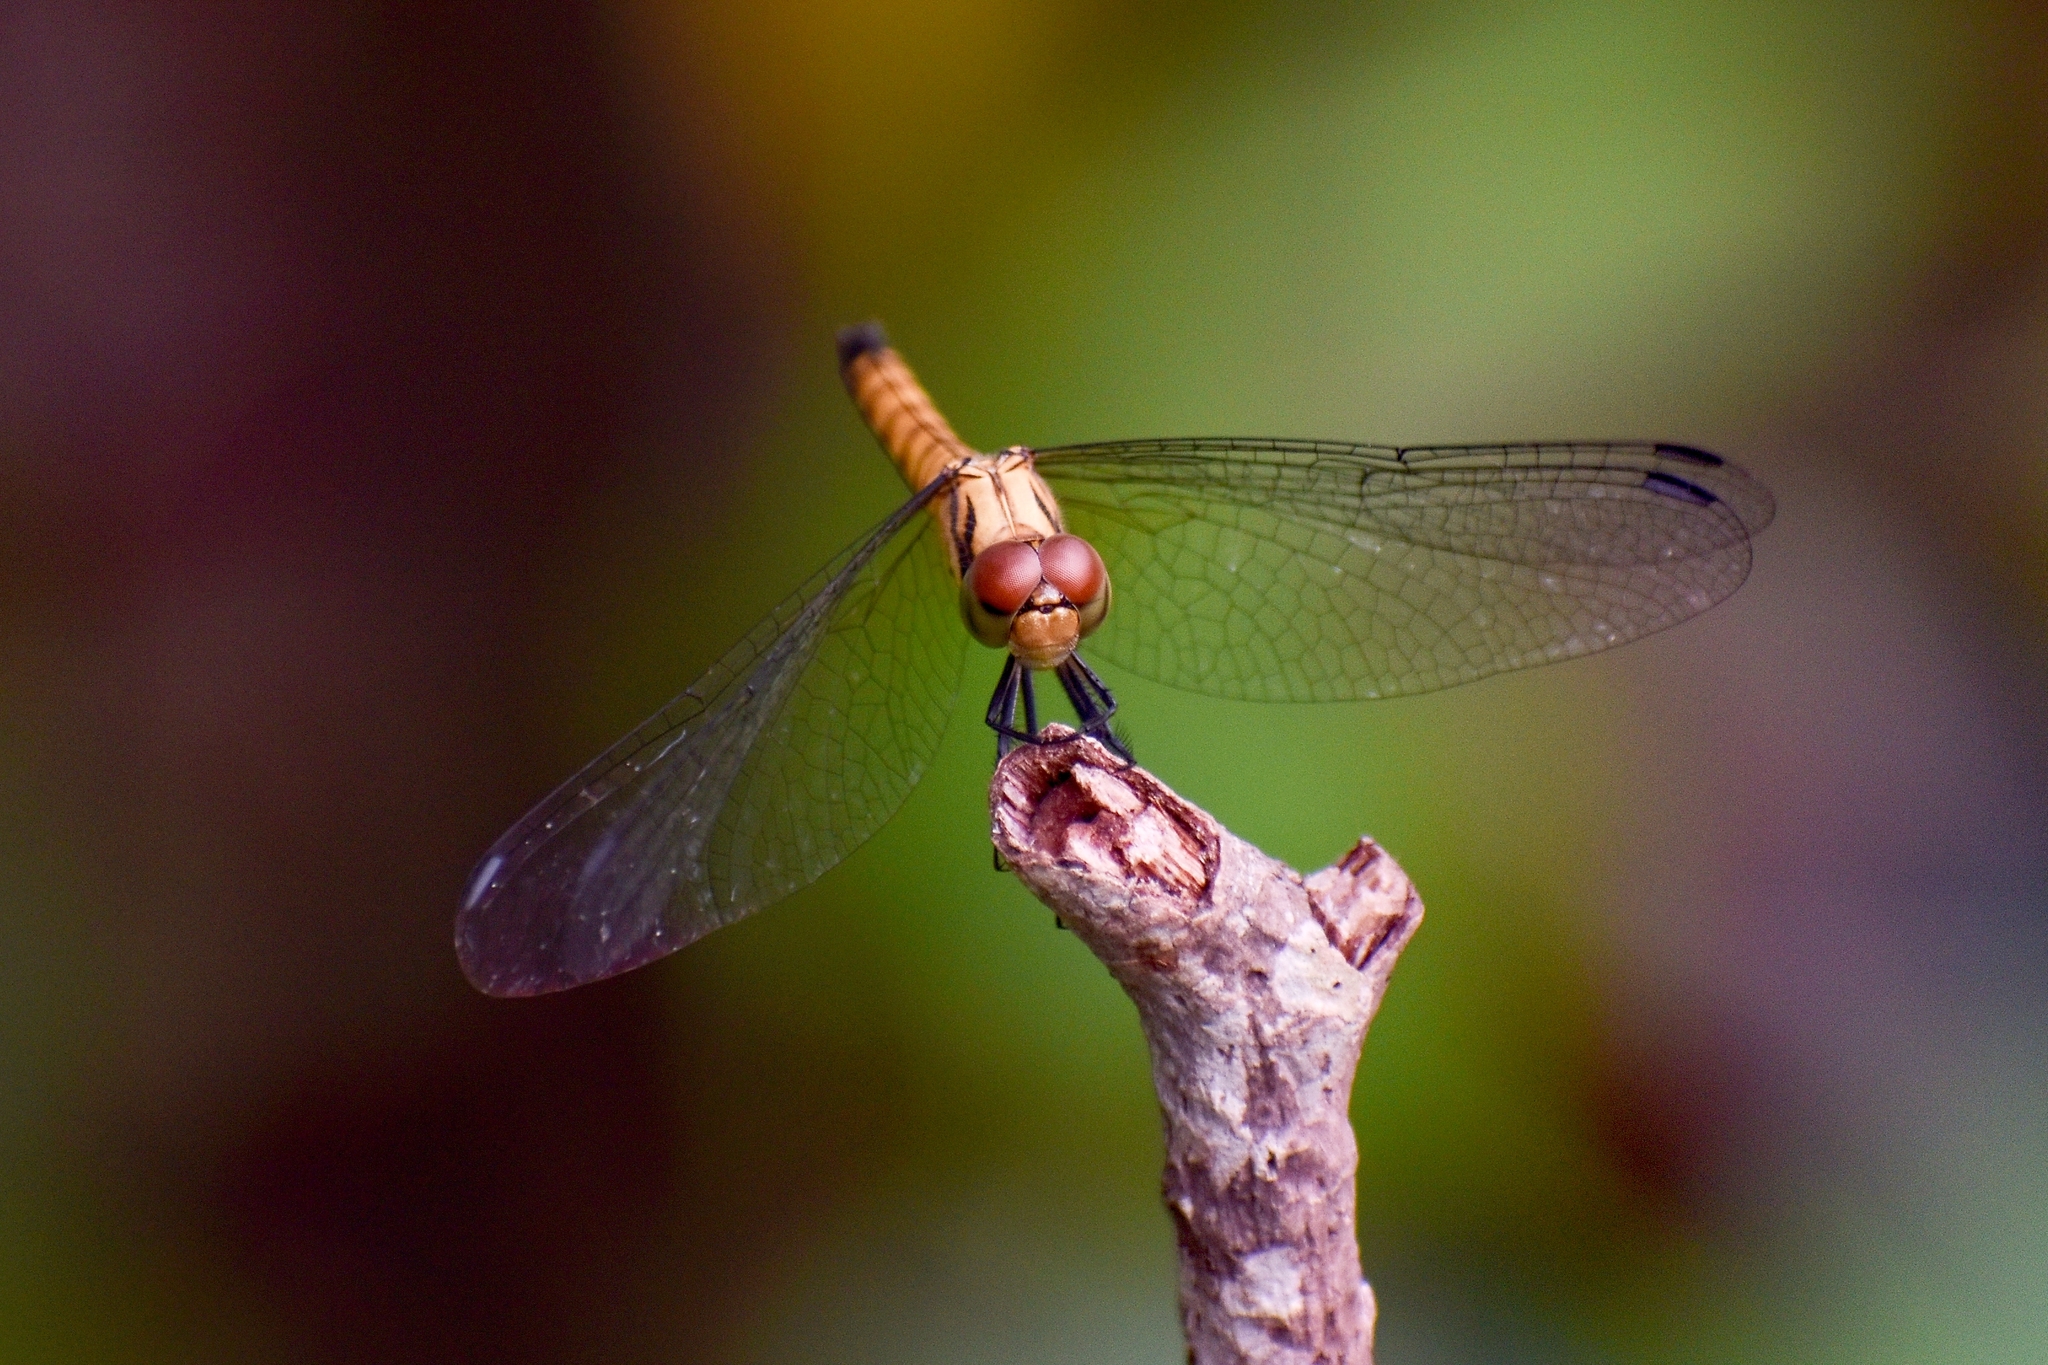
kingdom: Animalia
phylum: Arthropoda
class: Insecta
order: Odonata
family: Libellulidae
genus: Brachydiplax
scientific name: Brachydiplax chalybea
